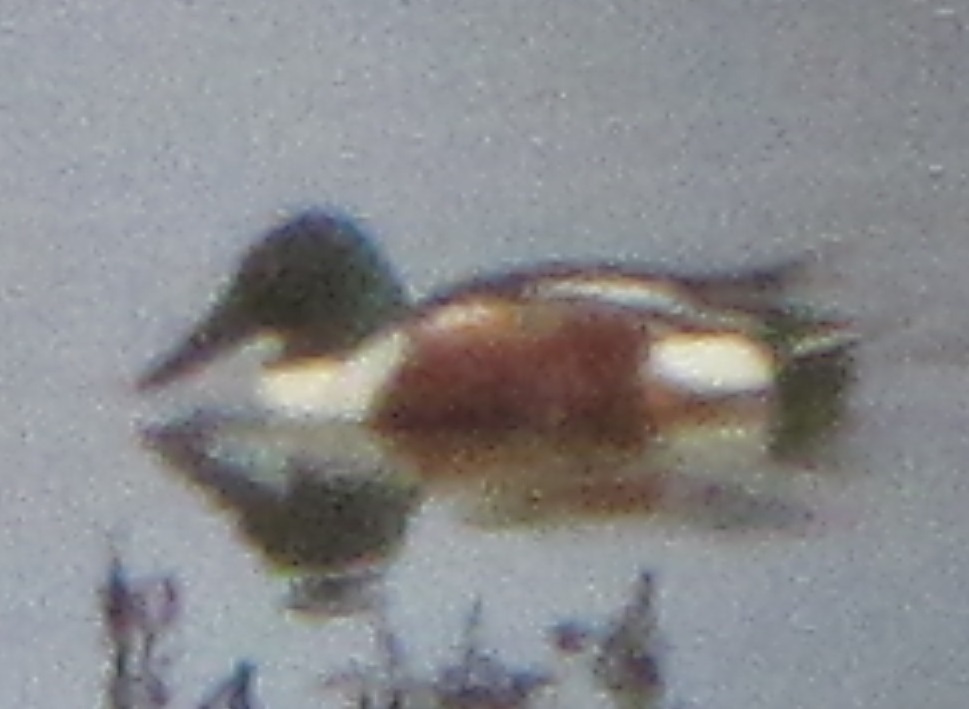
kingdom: Animalia
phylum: Chordata
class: Aves
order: Anseriformes
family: Anatidae
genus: Spatula
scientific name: Spatula clypeata
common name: Northern shoveler
